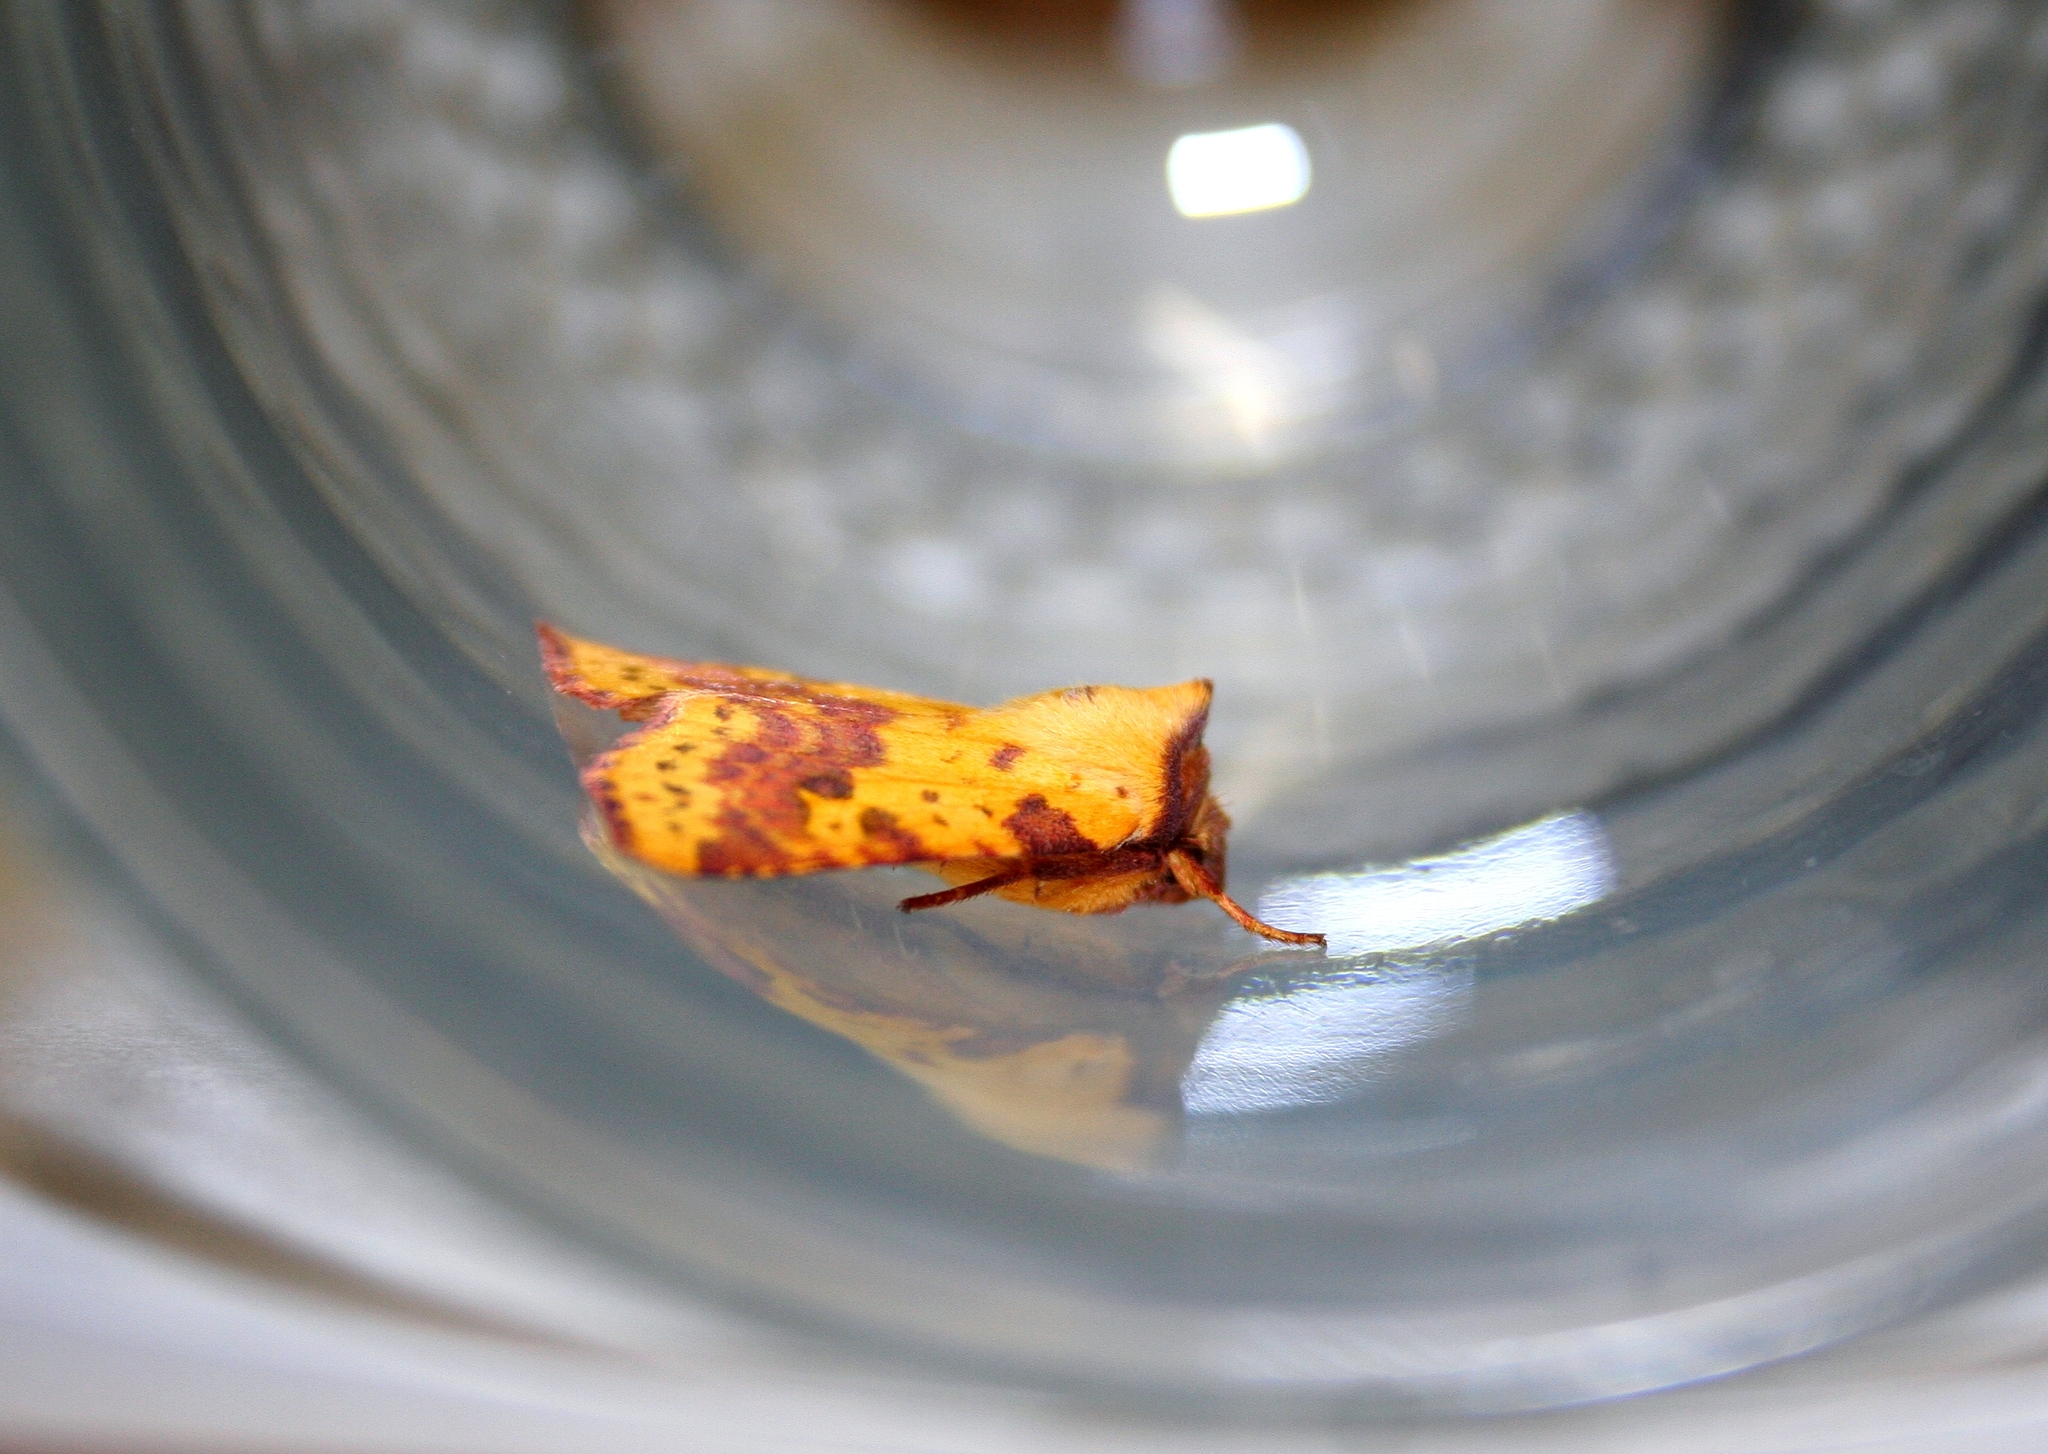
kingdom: Animalia
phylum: Arthropoda
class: Insecta
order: Lepidoptera
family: Noctuidae
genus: Xanthia
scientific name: Xanthia togata
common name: Pink-barred sallow
